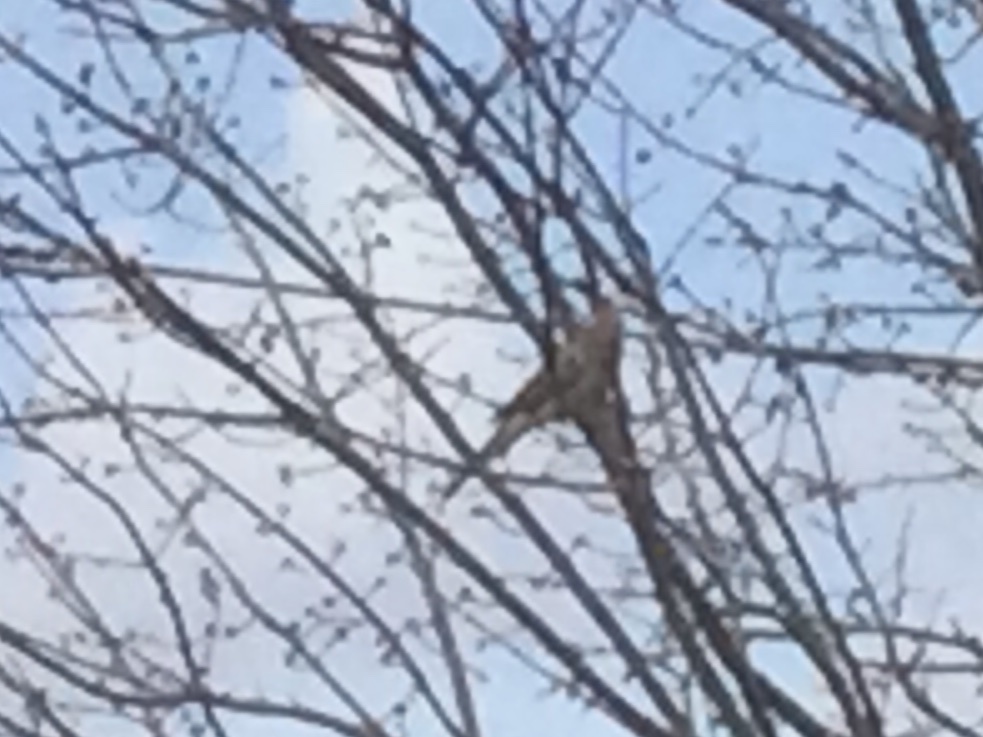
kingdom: Animalia
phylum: Chordata
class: Aves
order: Columbiformes
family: Columbidae
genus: Zenaida
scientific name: Zenaida macroura
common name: Mourning dove
